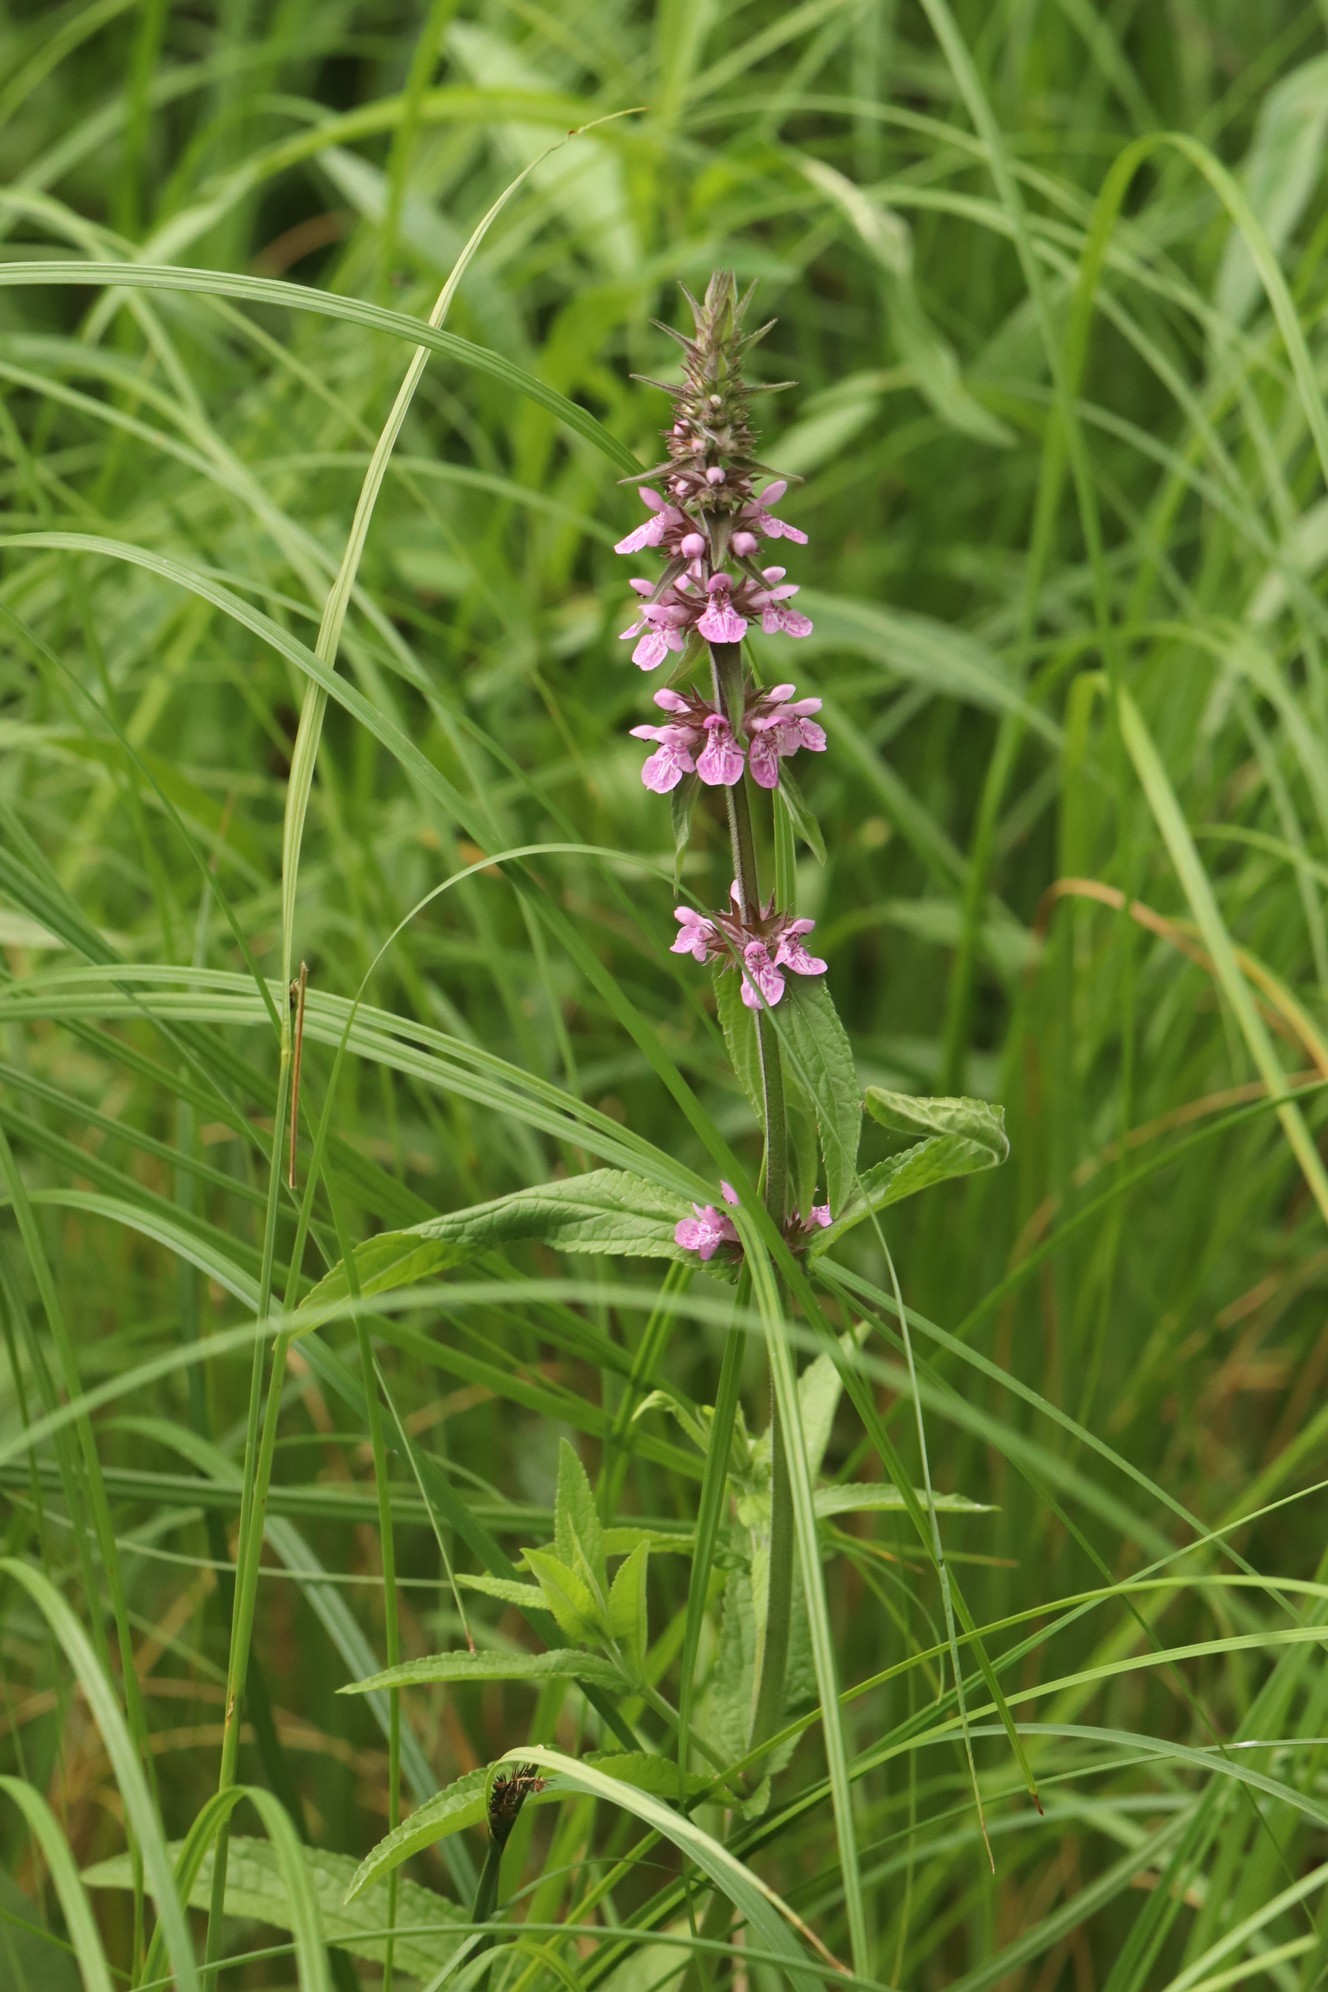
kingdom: Plantae
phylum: Tracheophyta
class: Magnoliopsida
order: Lamiales
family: Lamiaceae
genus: Stachys
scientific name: Stachys palustris
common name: Marsh woundwort
